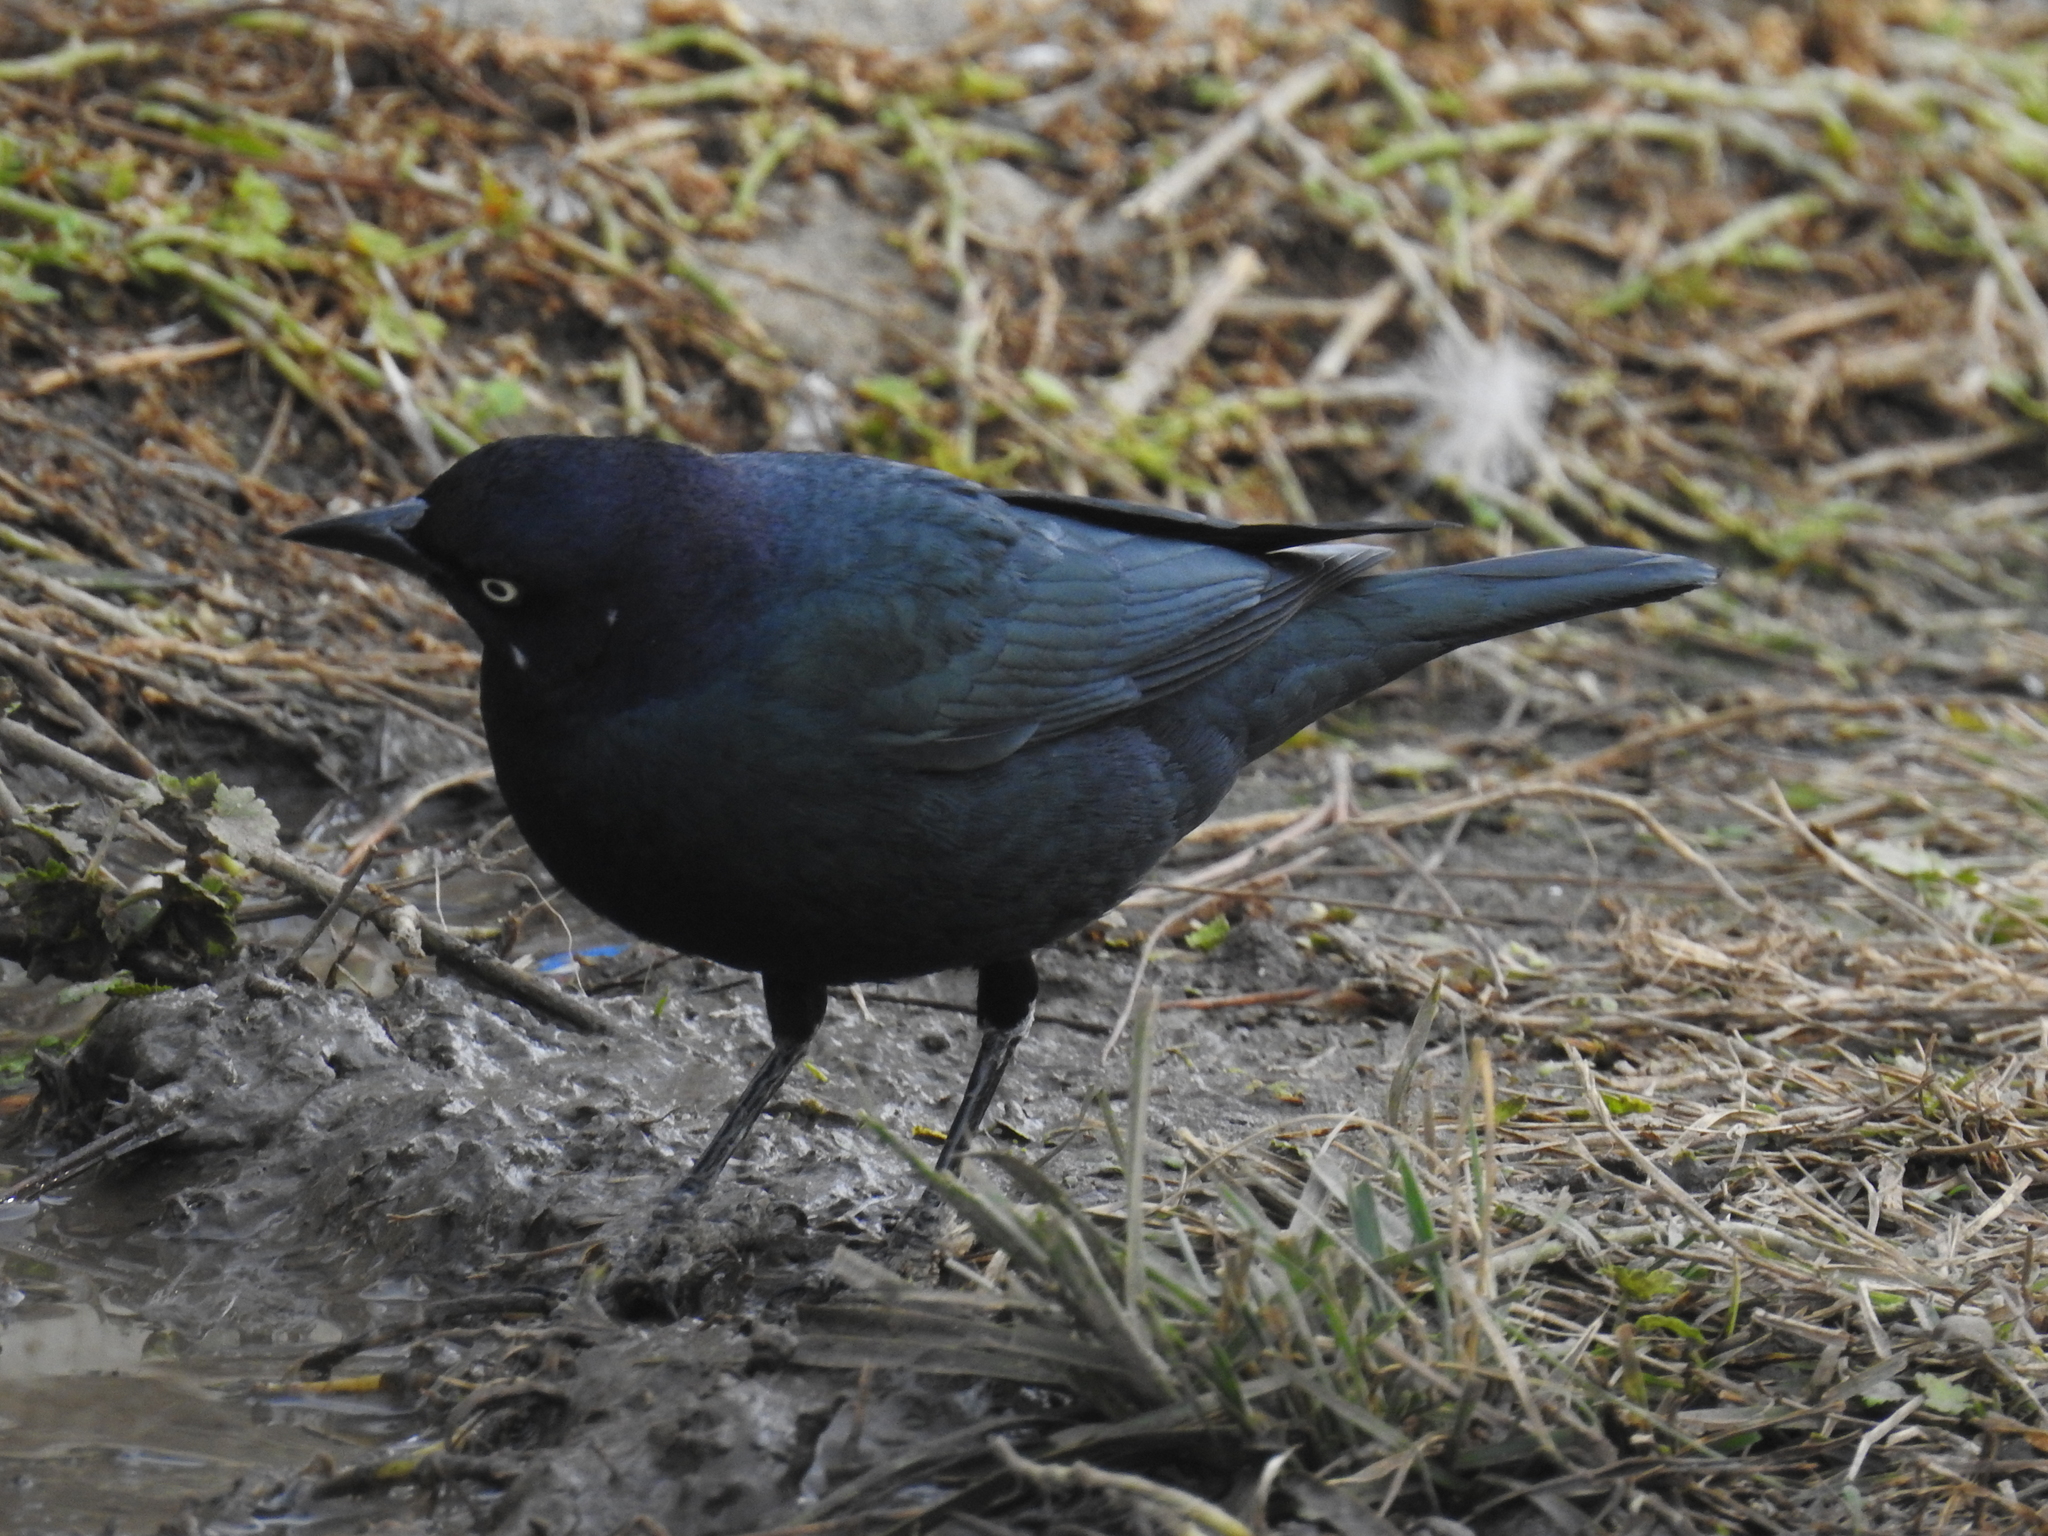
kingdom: Animalia
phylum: Chordata
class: Aves
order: Passeriformes
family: Icteridae
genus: Euphagus
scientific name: Euphagus cyanocephalus
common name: Brewer's blackbird
